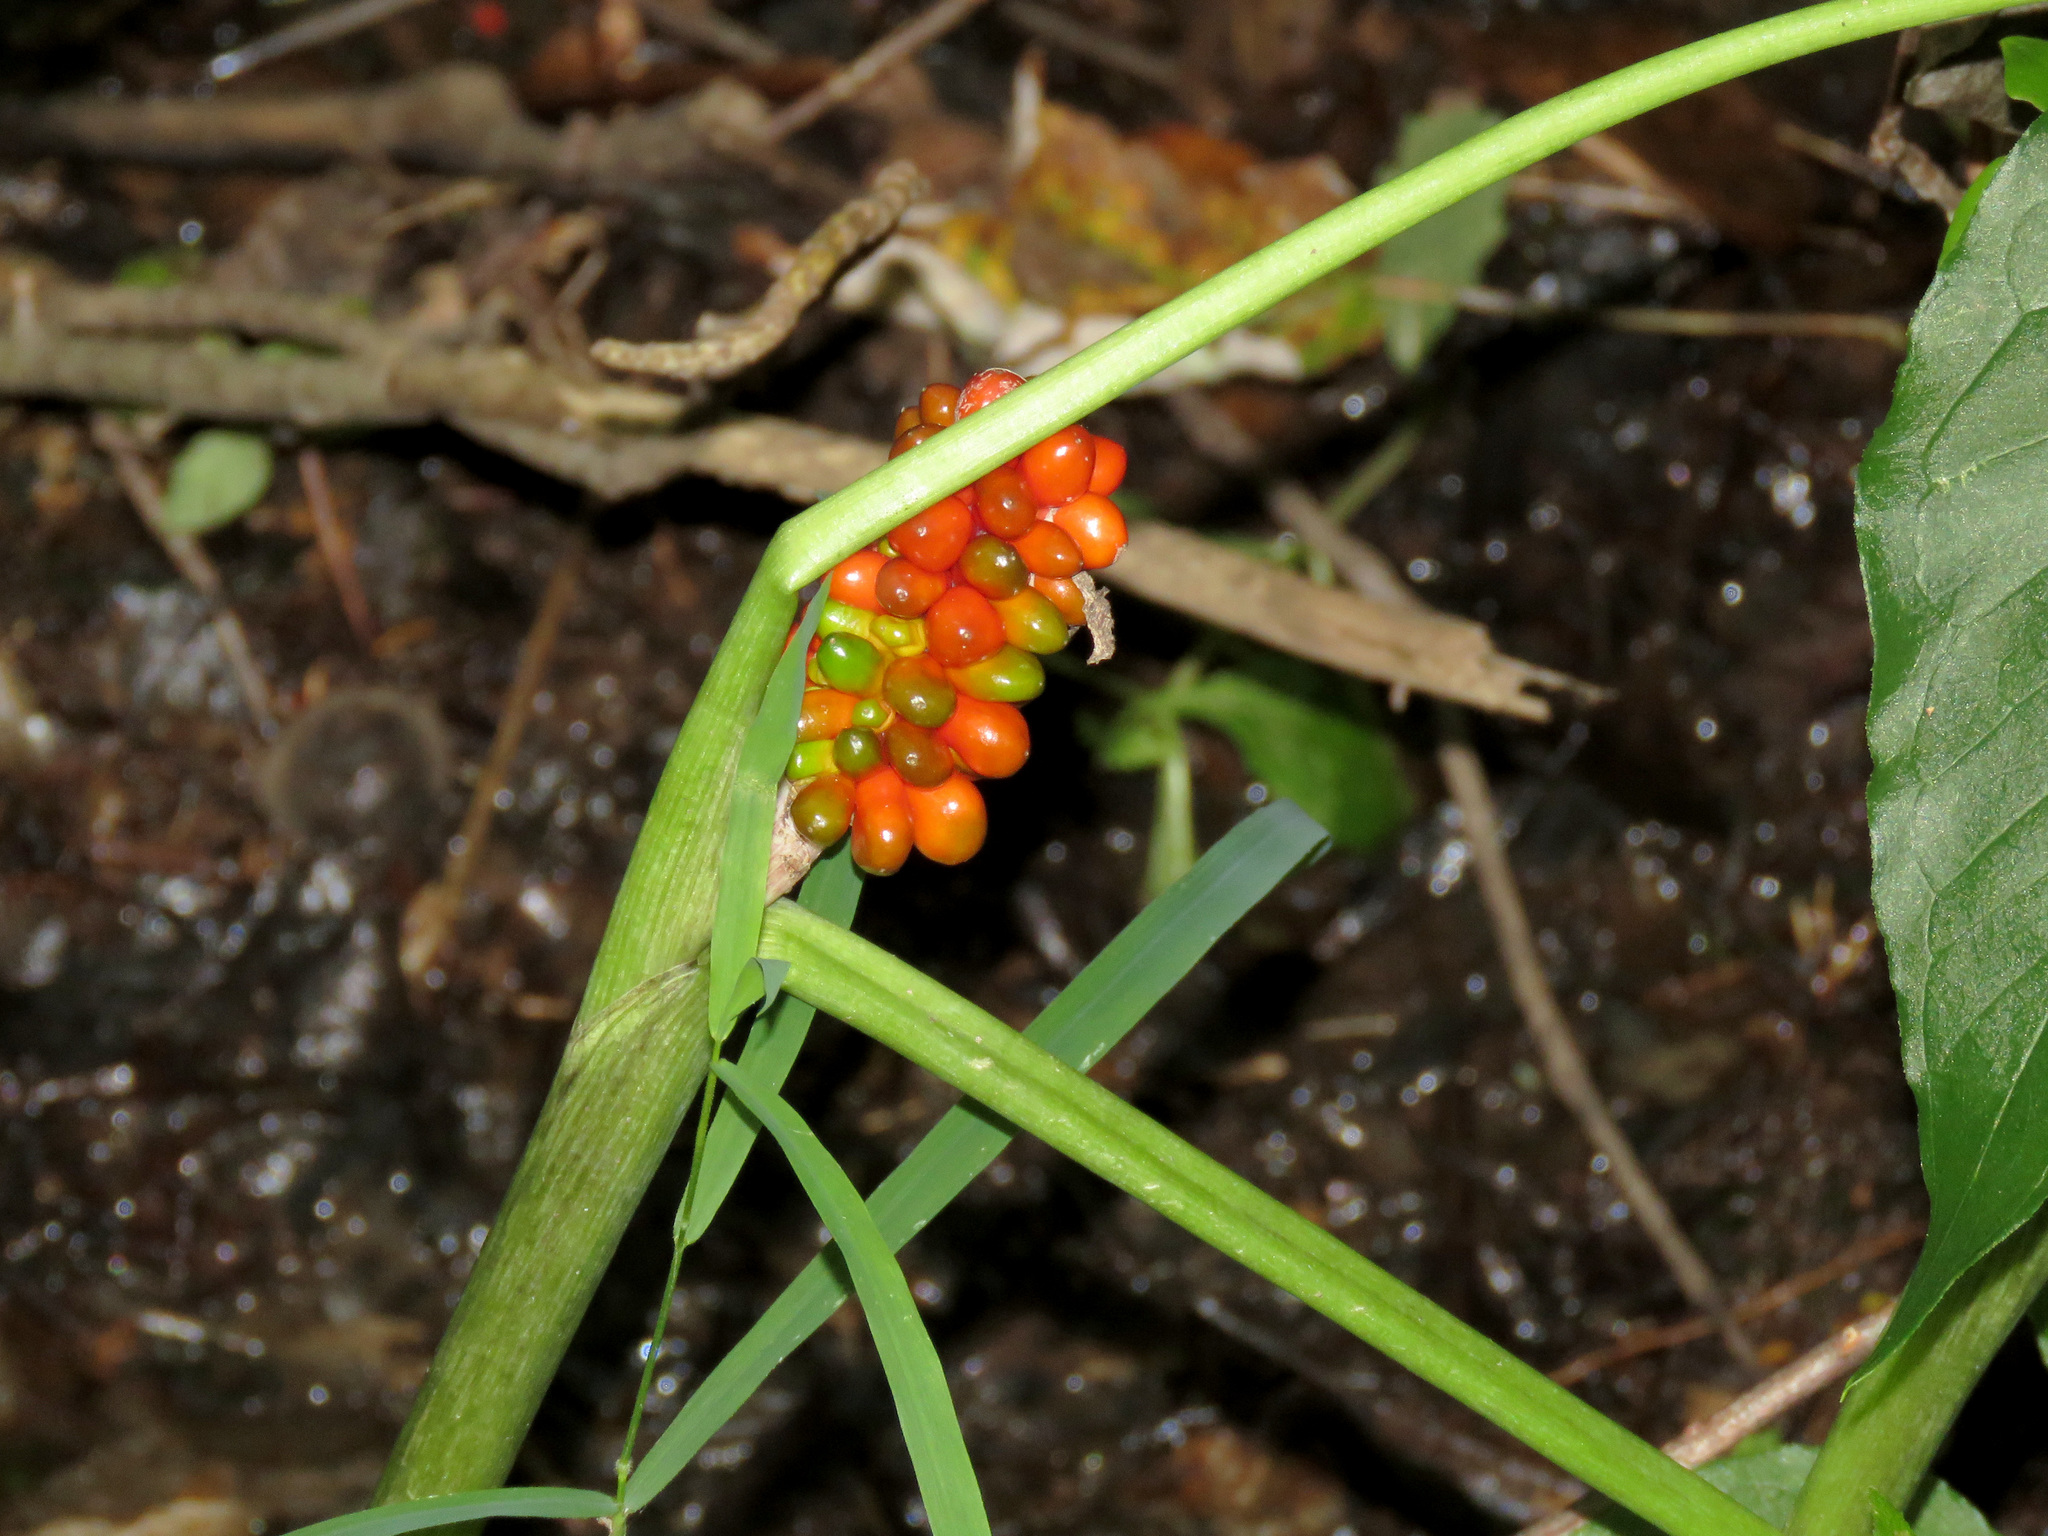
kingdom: Plantae
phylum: Tracheophyta
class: Liliopsida
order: Alismatales
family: Araceae
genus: Arisaema
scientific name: Arisaema triphyllum
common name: Jack-in-the-pulpit
